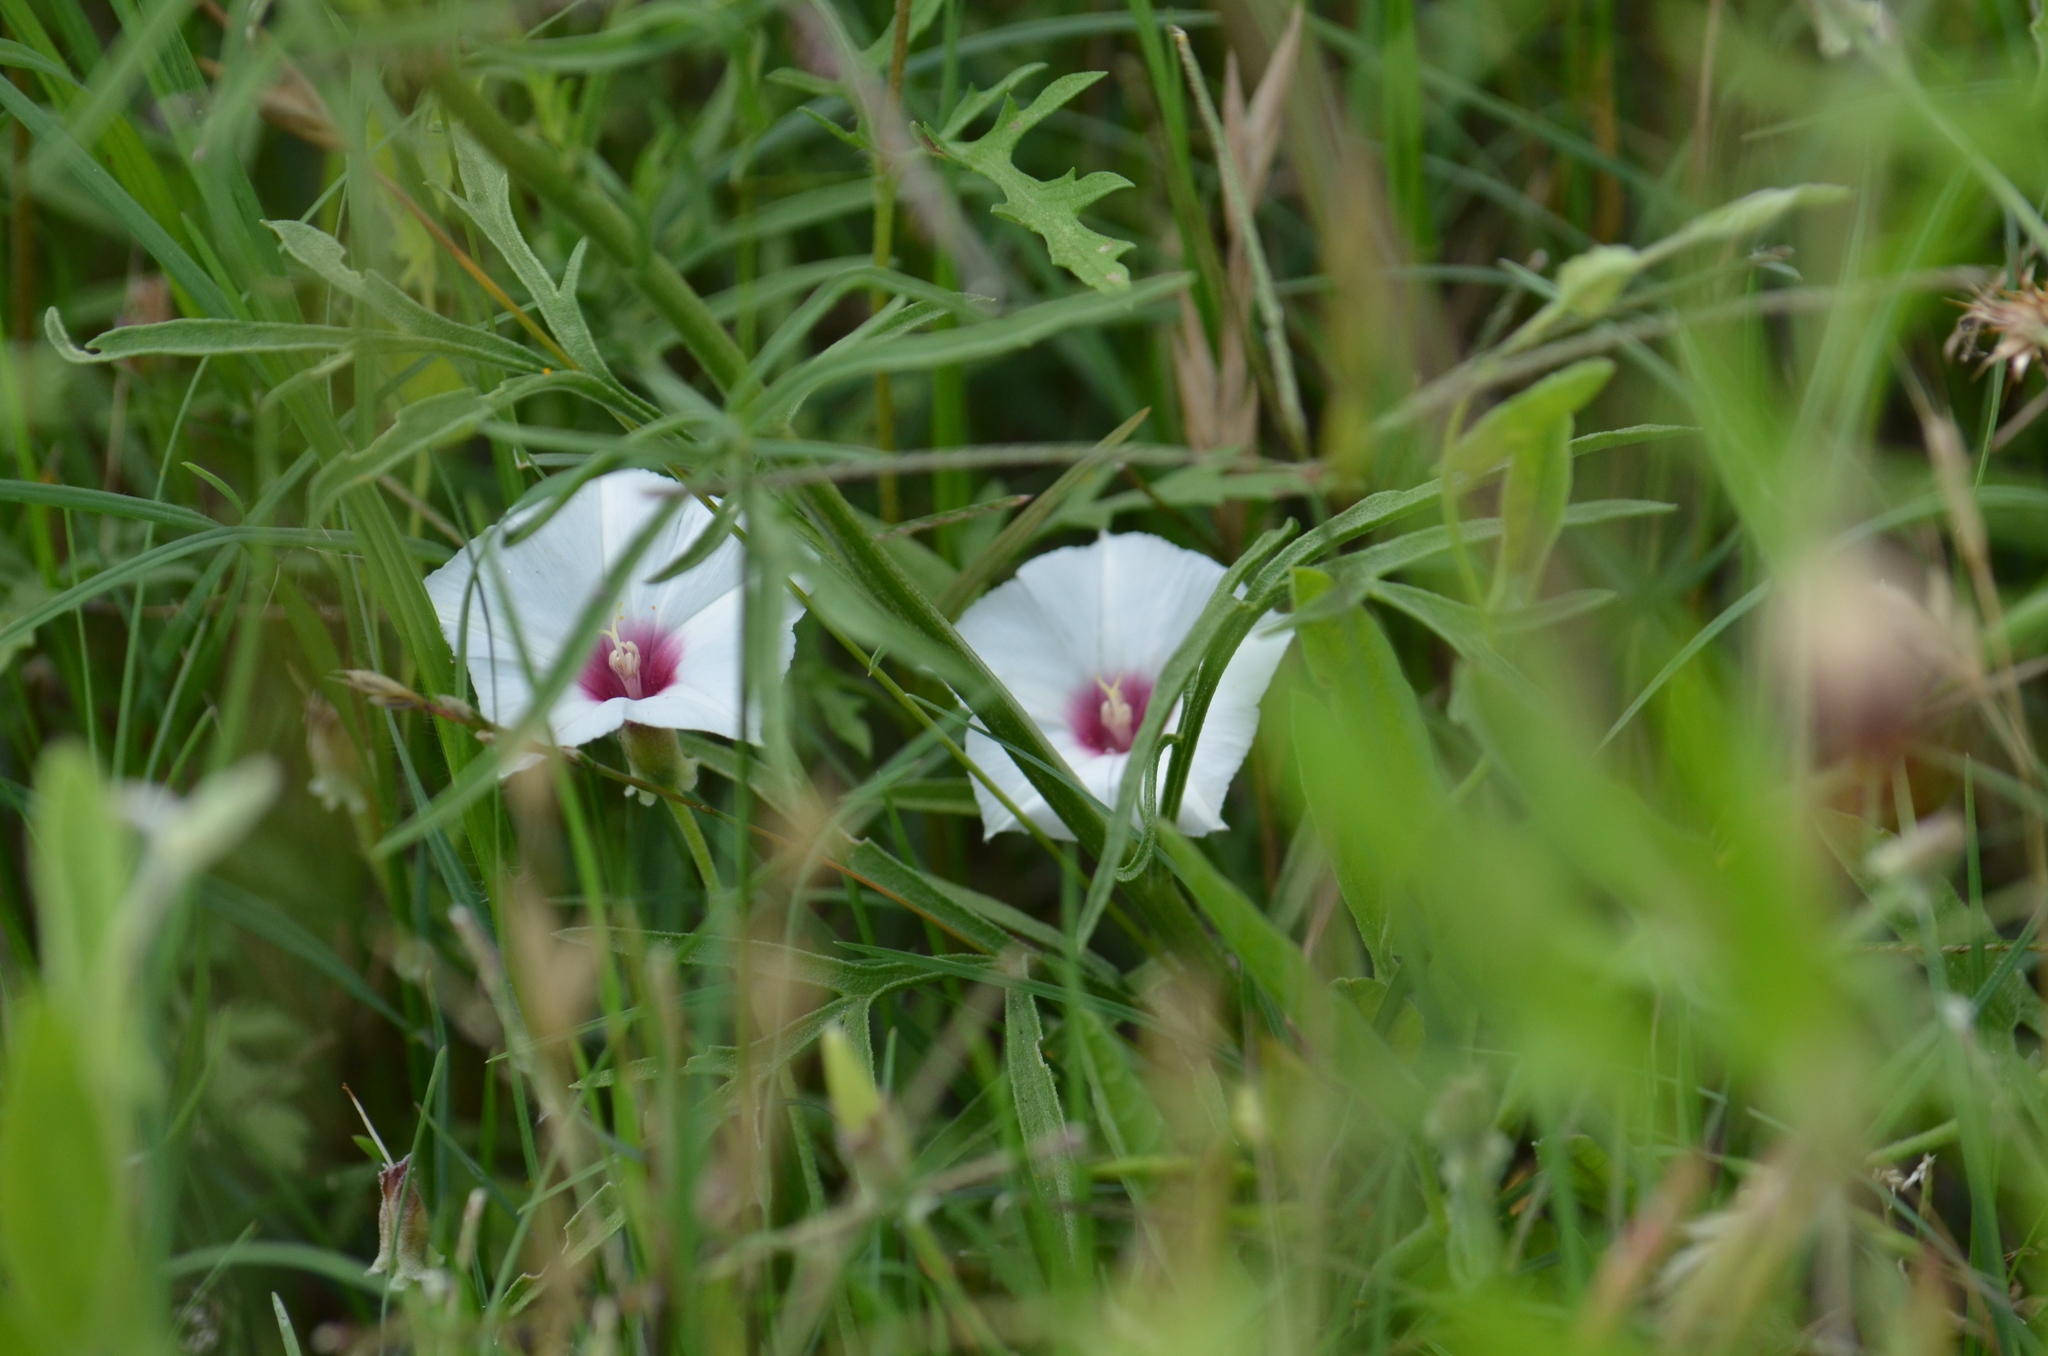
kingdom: Plantae
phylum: Tracheophyta
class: Magnoliopsida
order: Solanales
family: Convolvulaceae
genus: Convolvulus
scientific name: Convolvulus equitans
